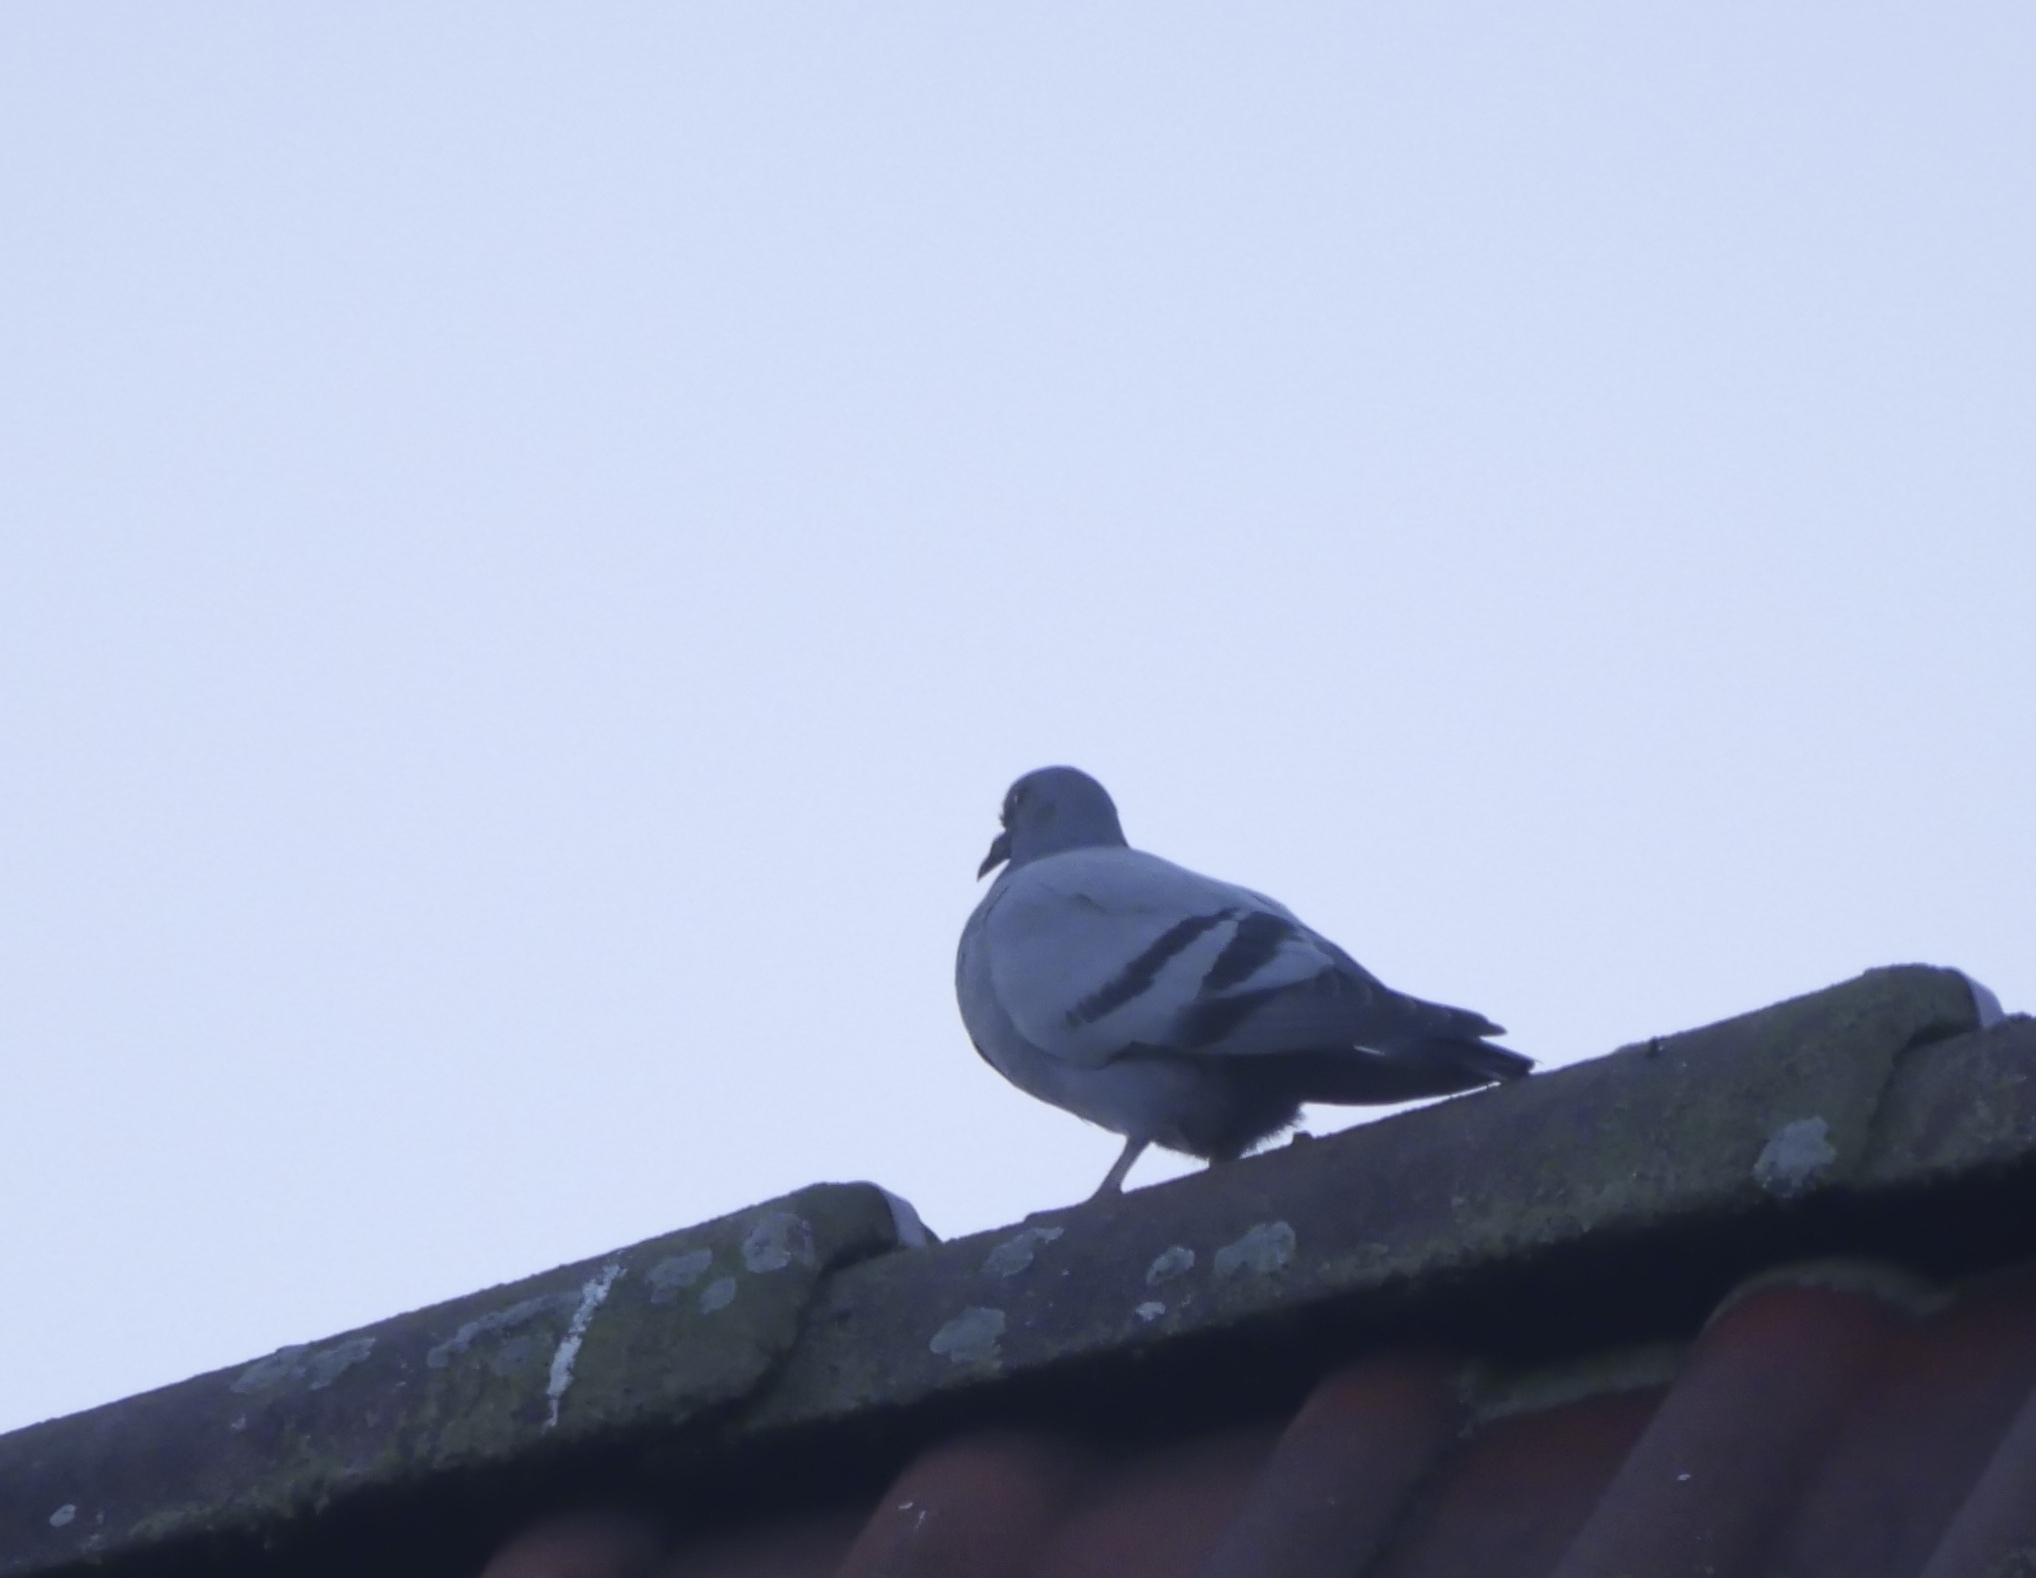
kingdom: Animalia
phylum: Chordata
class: Aves
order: Columbiformes
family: Columbidae
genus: Columba
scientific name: Columba livia
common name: Rock pigeon
